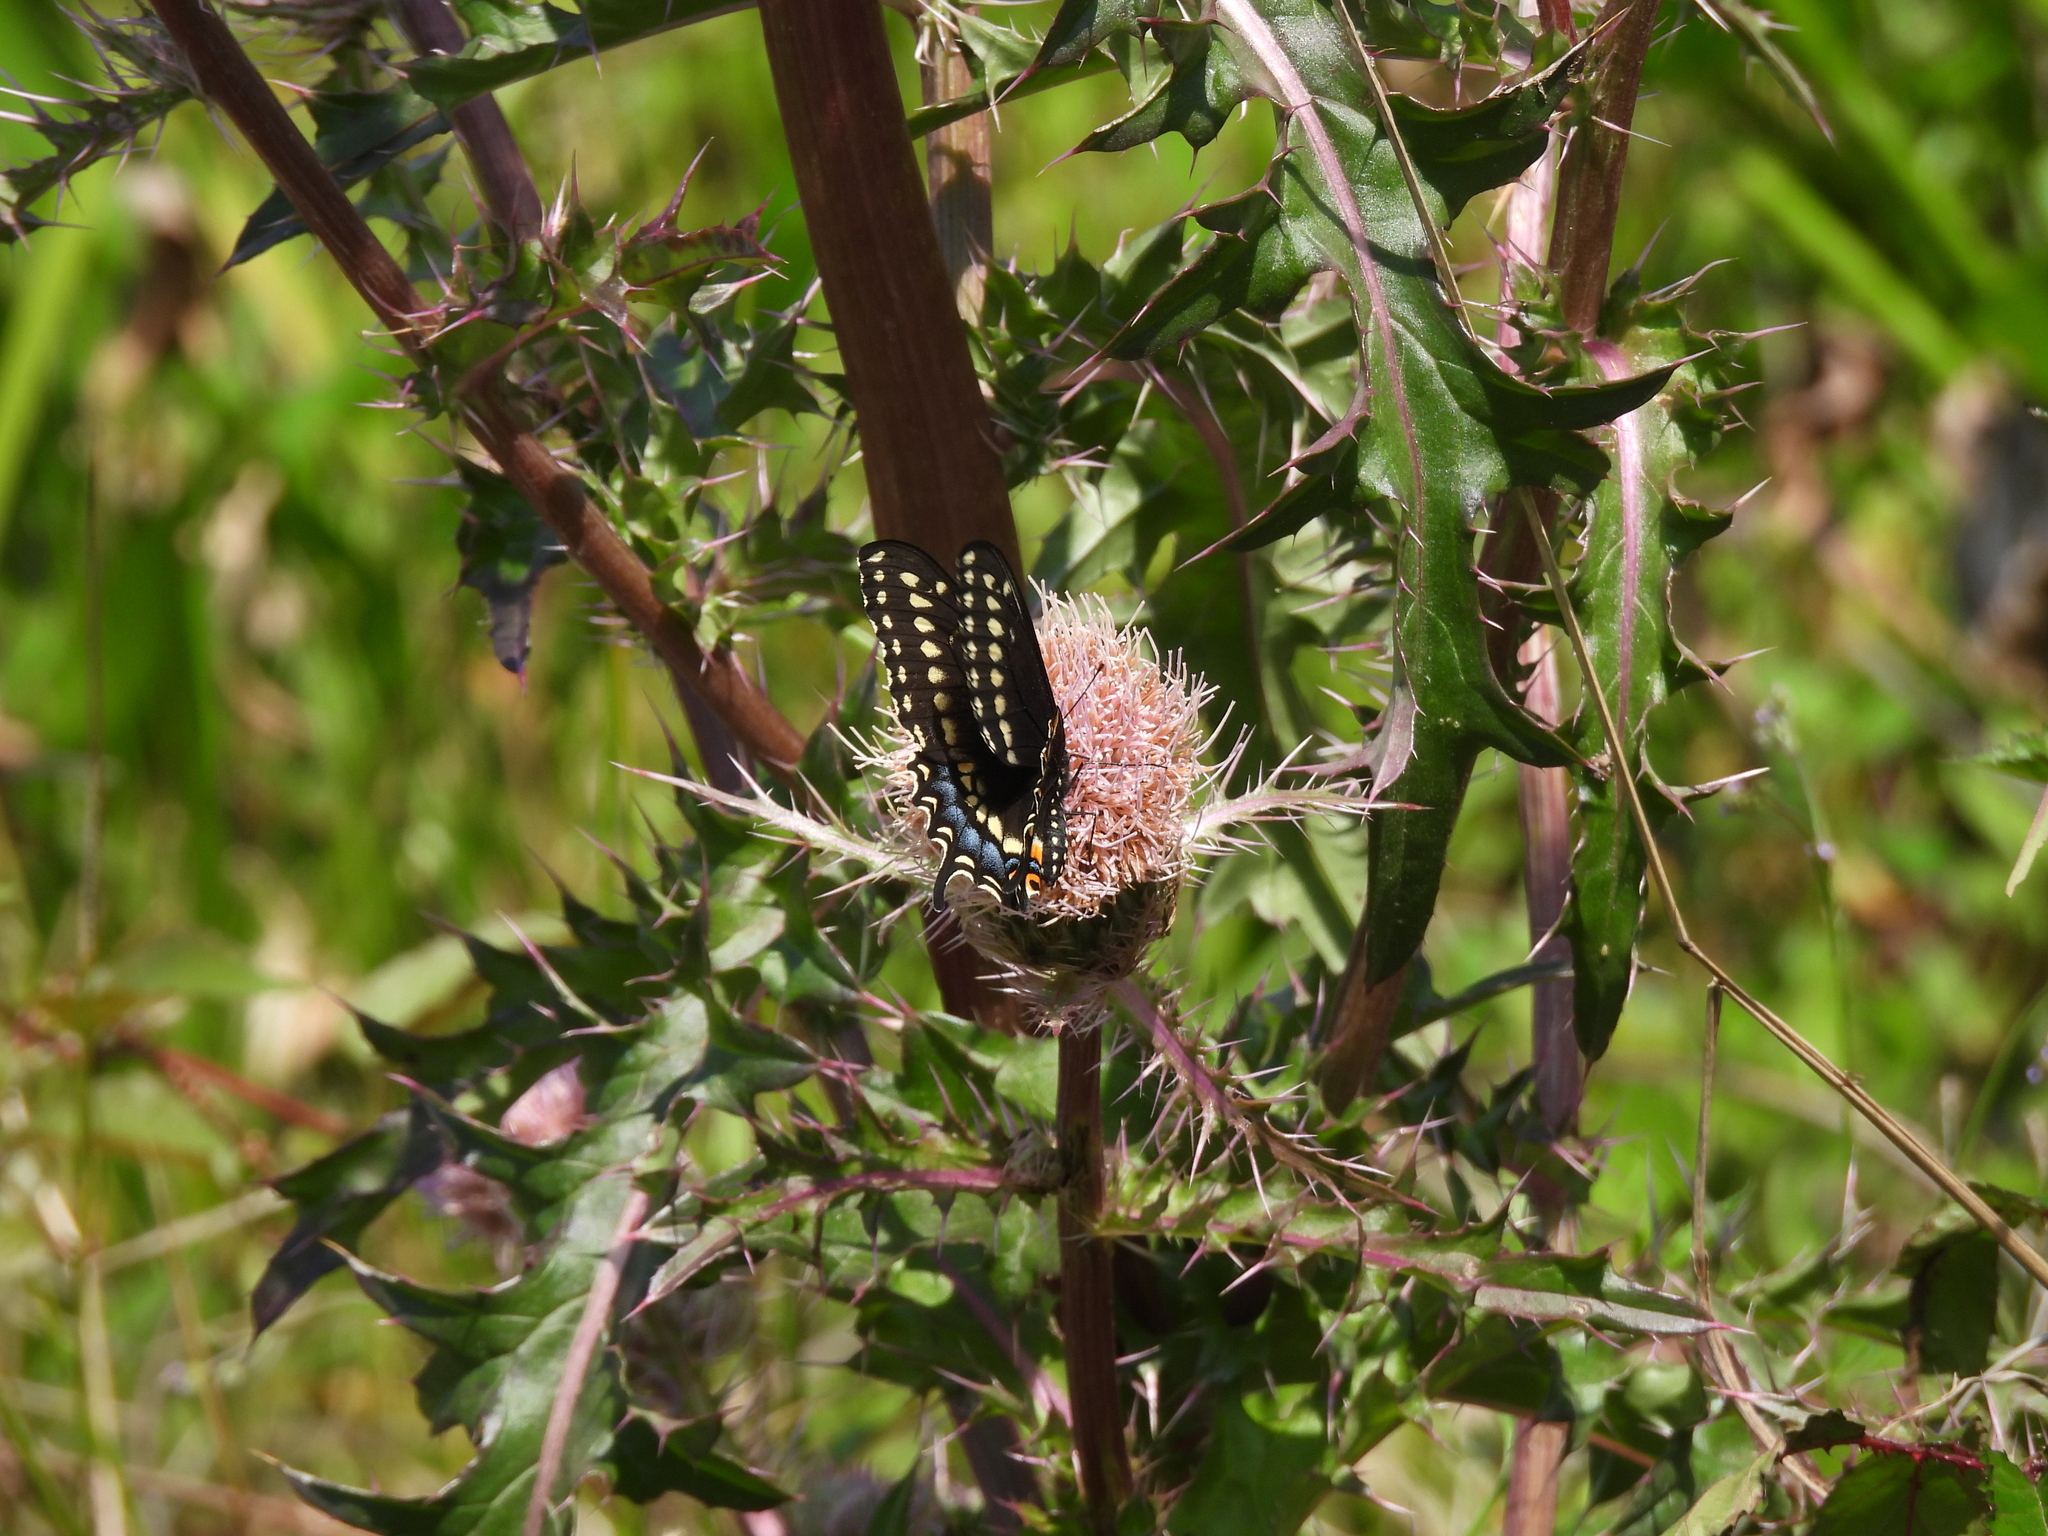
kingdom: Animalia
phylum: Arthropoda
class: Insecta
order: Lepidoptera
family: Papilionidae
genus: Papilio
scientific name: Papilio polyxenes
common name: Black swallowtail
